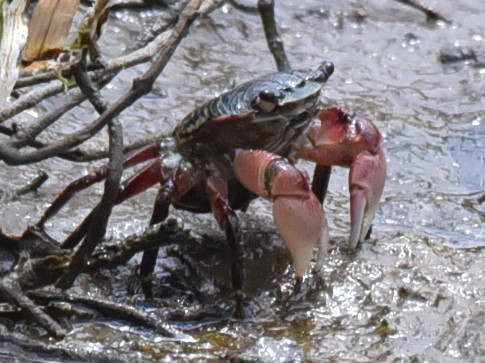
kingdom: Animalia
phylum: Arthropoda
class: Malacostraca
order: Decapoda
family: Grapsidae
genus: Pachygrapsus
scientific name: Pachygrapsus crassipes
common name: Striped shore crab
